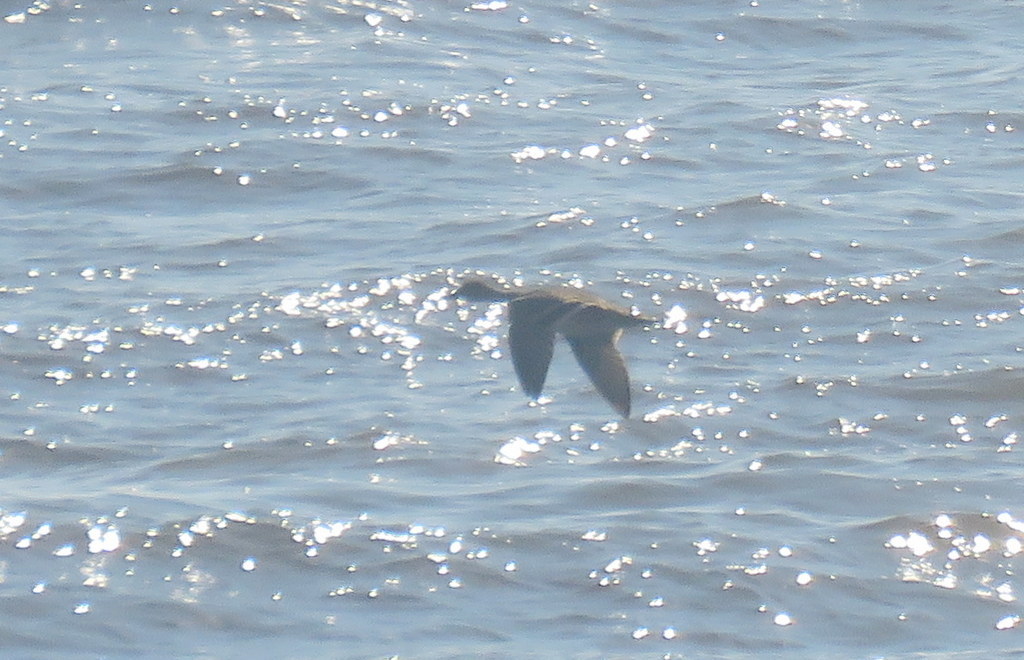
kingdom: Animalia
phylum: Chordata
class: Aves
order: Anseriformes
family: Anatidae
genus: Anas
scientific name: Anas georgica
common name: Yellow-billed pintail
